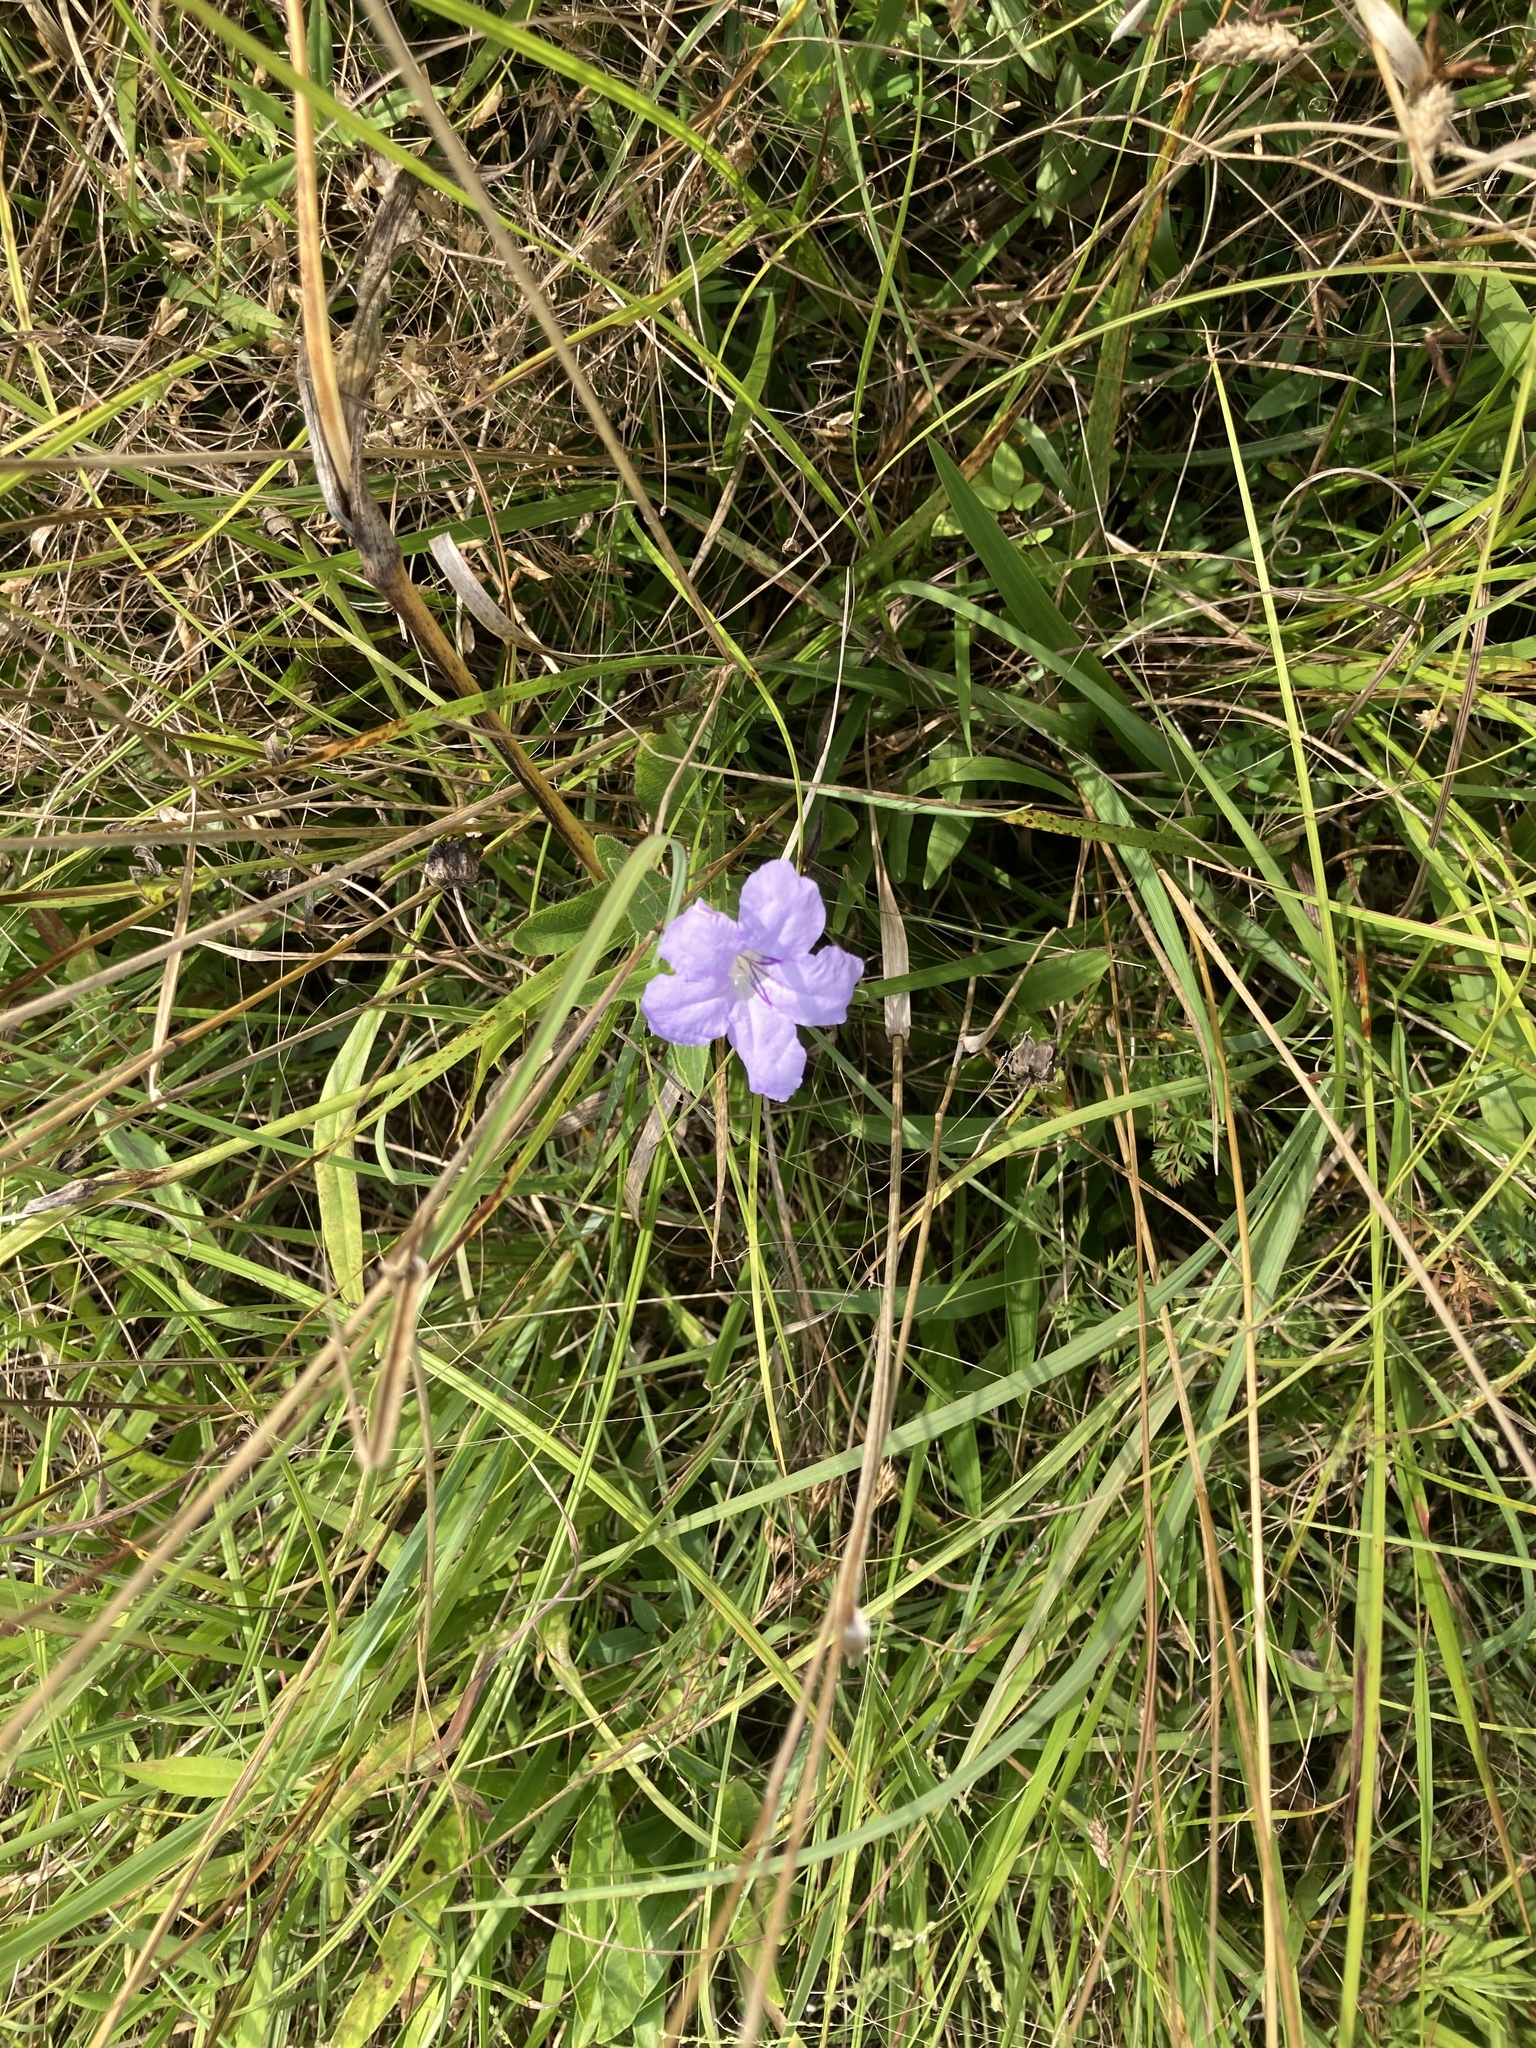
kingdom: Plantae
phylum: Tracheophyta
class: Magnoliopsida
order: Lamiales
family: Acanthaceae
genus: Ruellia
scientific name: Ruellia humilis
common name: Fringe-leaf ruellia
